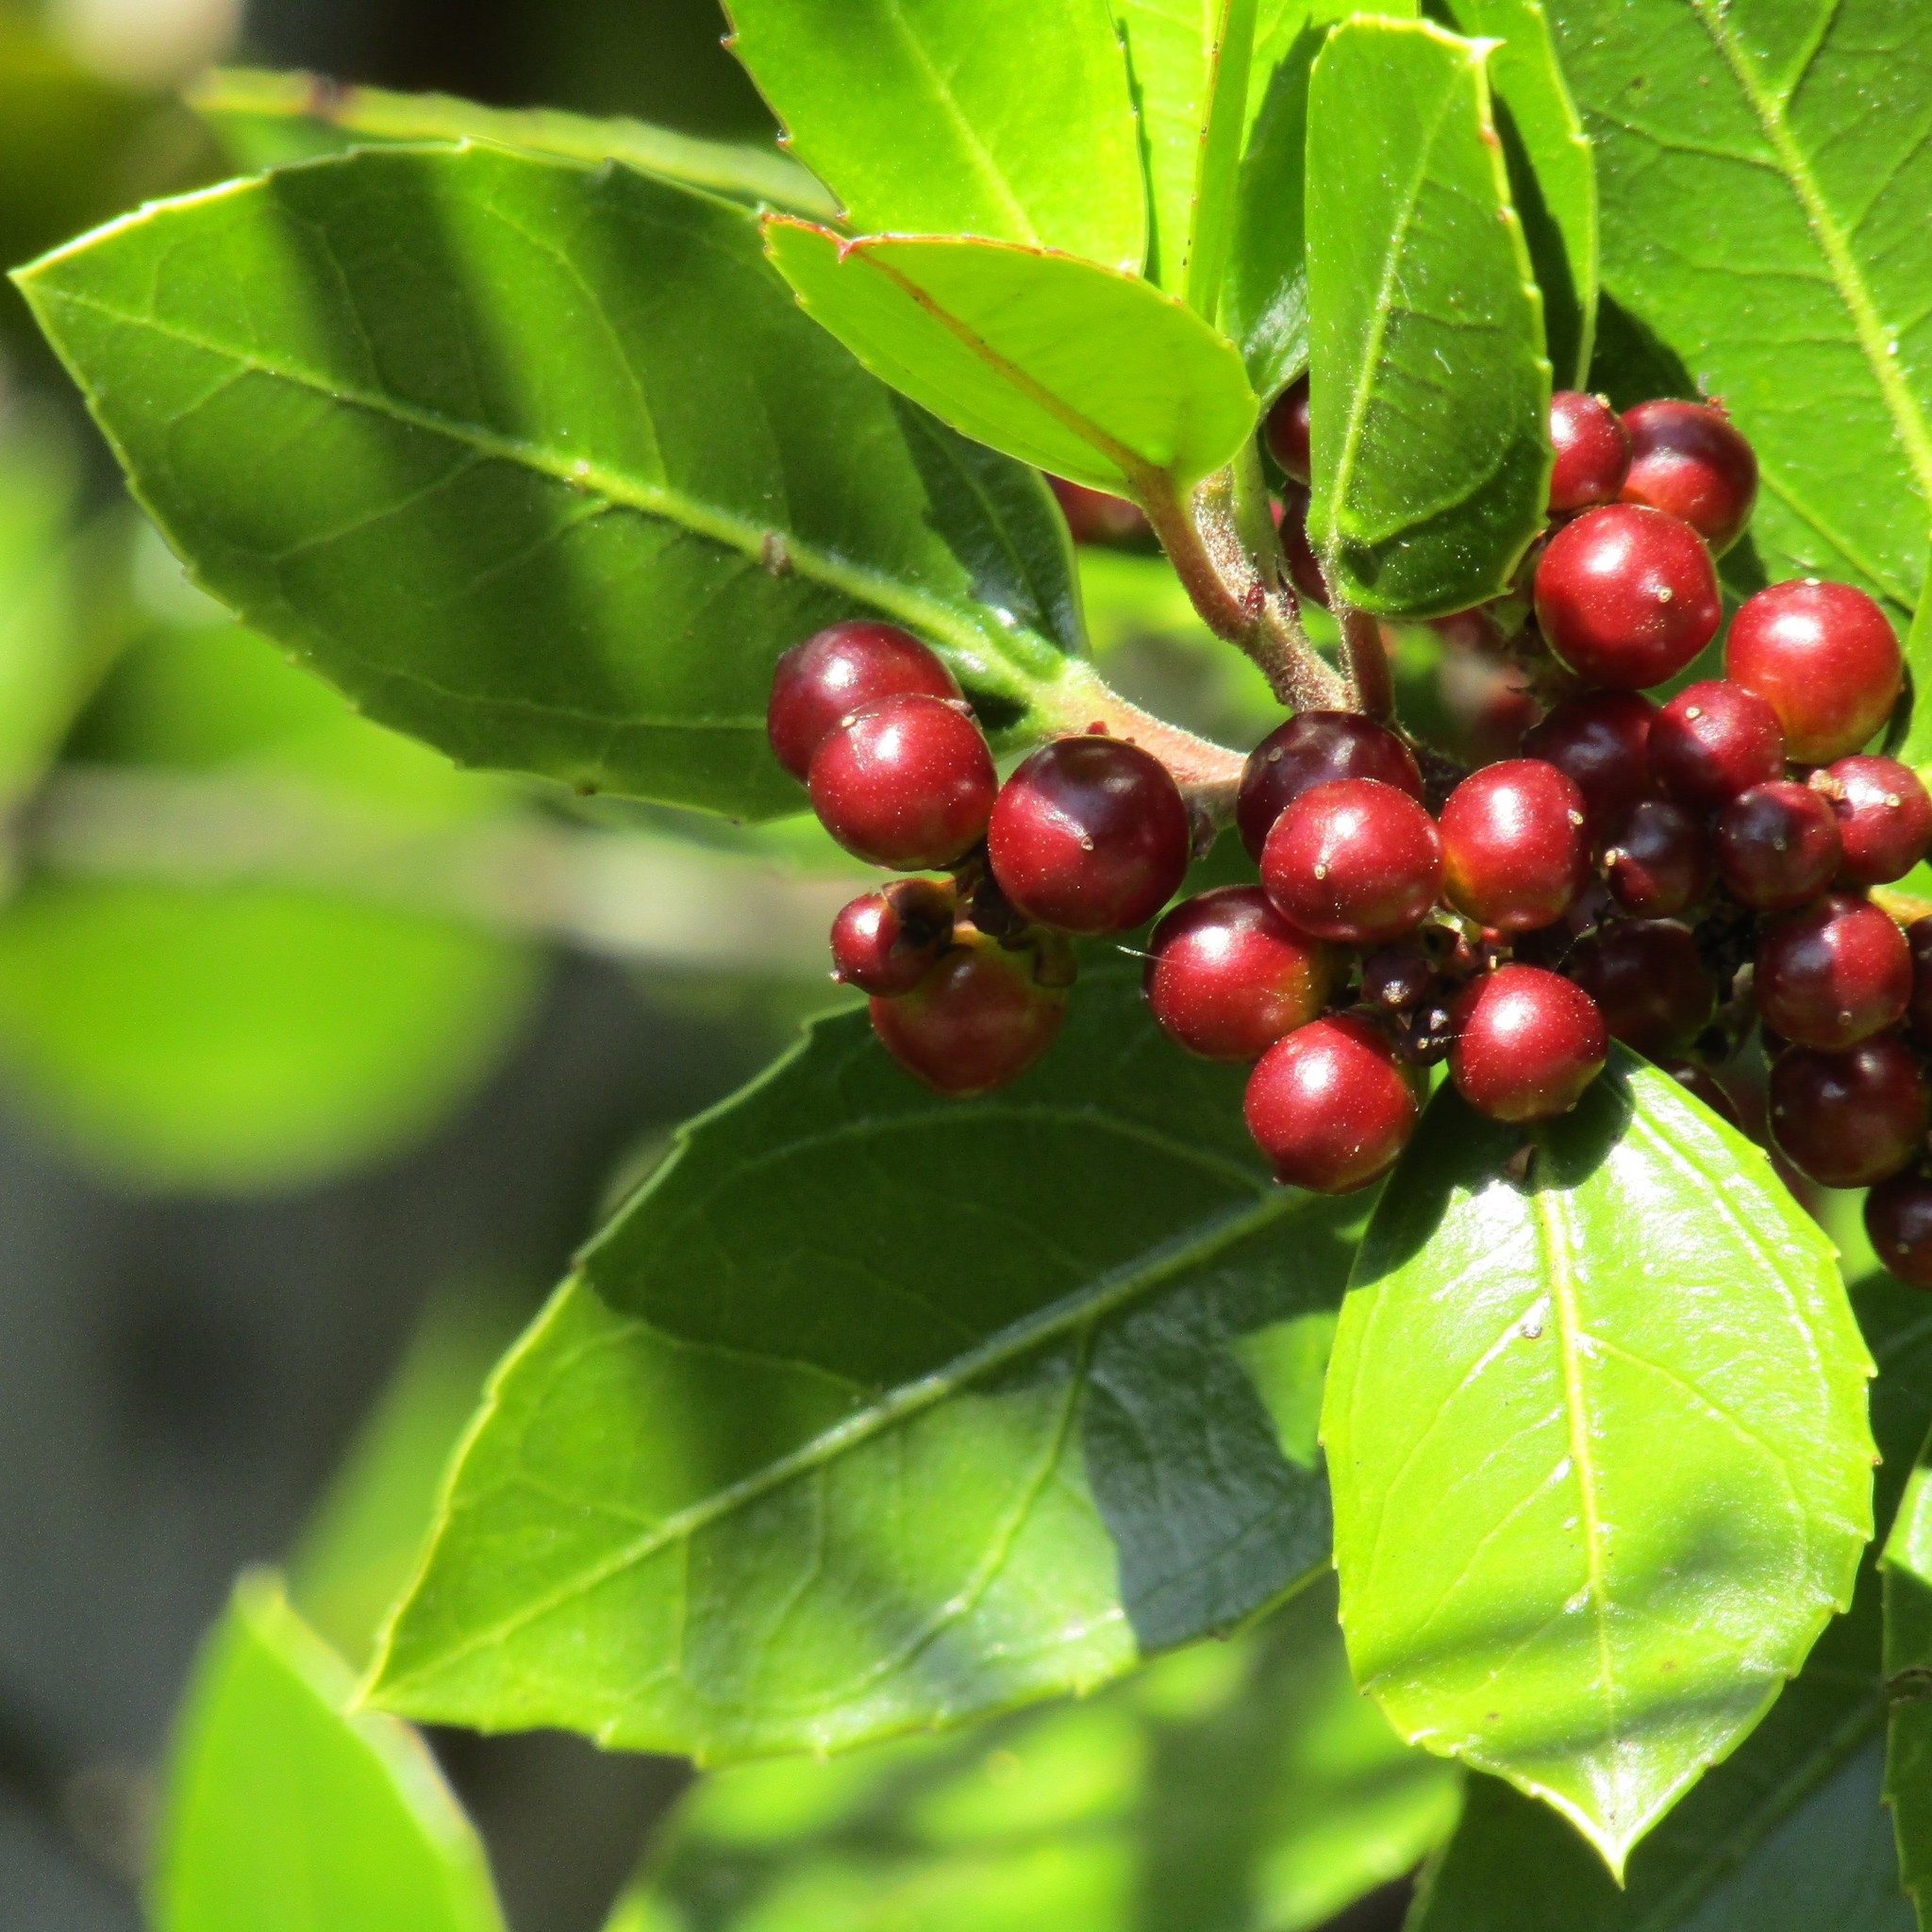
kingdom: Plantae
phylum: Tracheophyta
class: Magnoliopsida
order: Rosales
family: Rhamnaceae
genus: Rhamnus
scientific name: Rhamnus alaternus
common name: Mediterranean buckthorn
